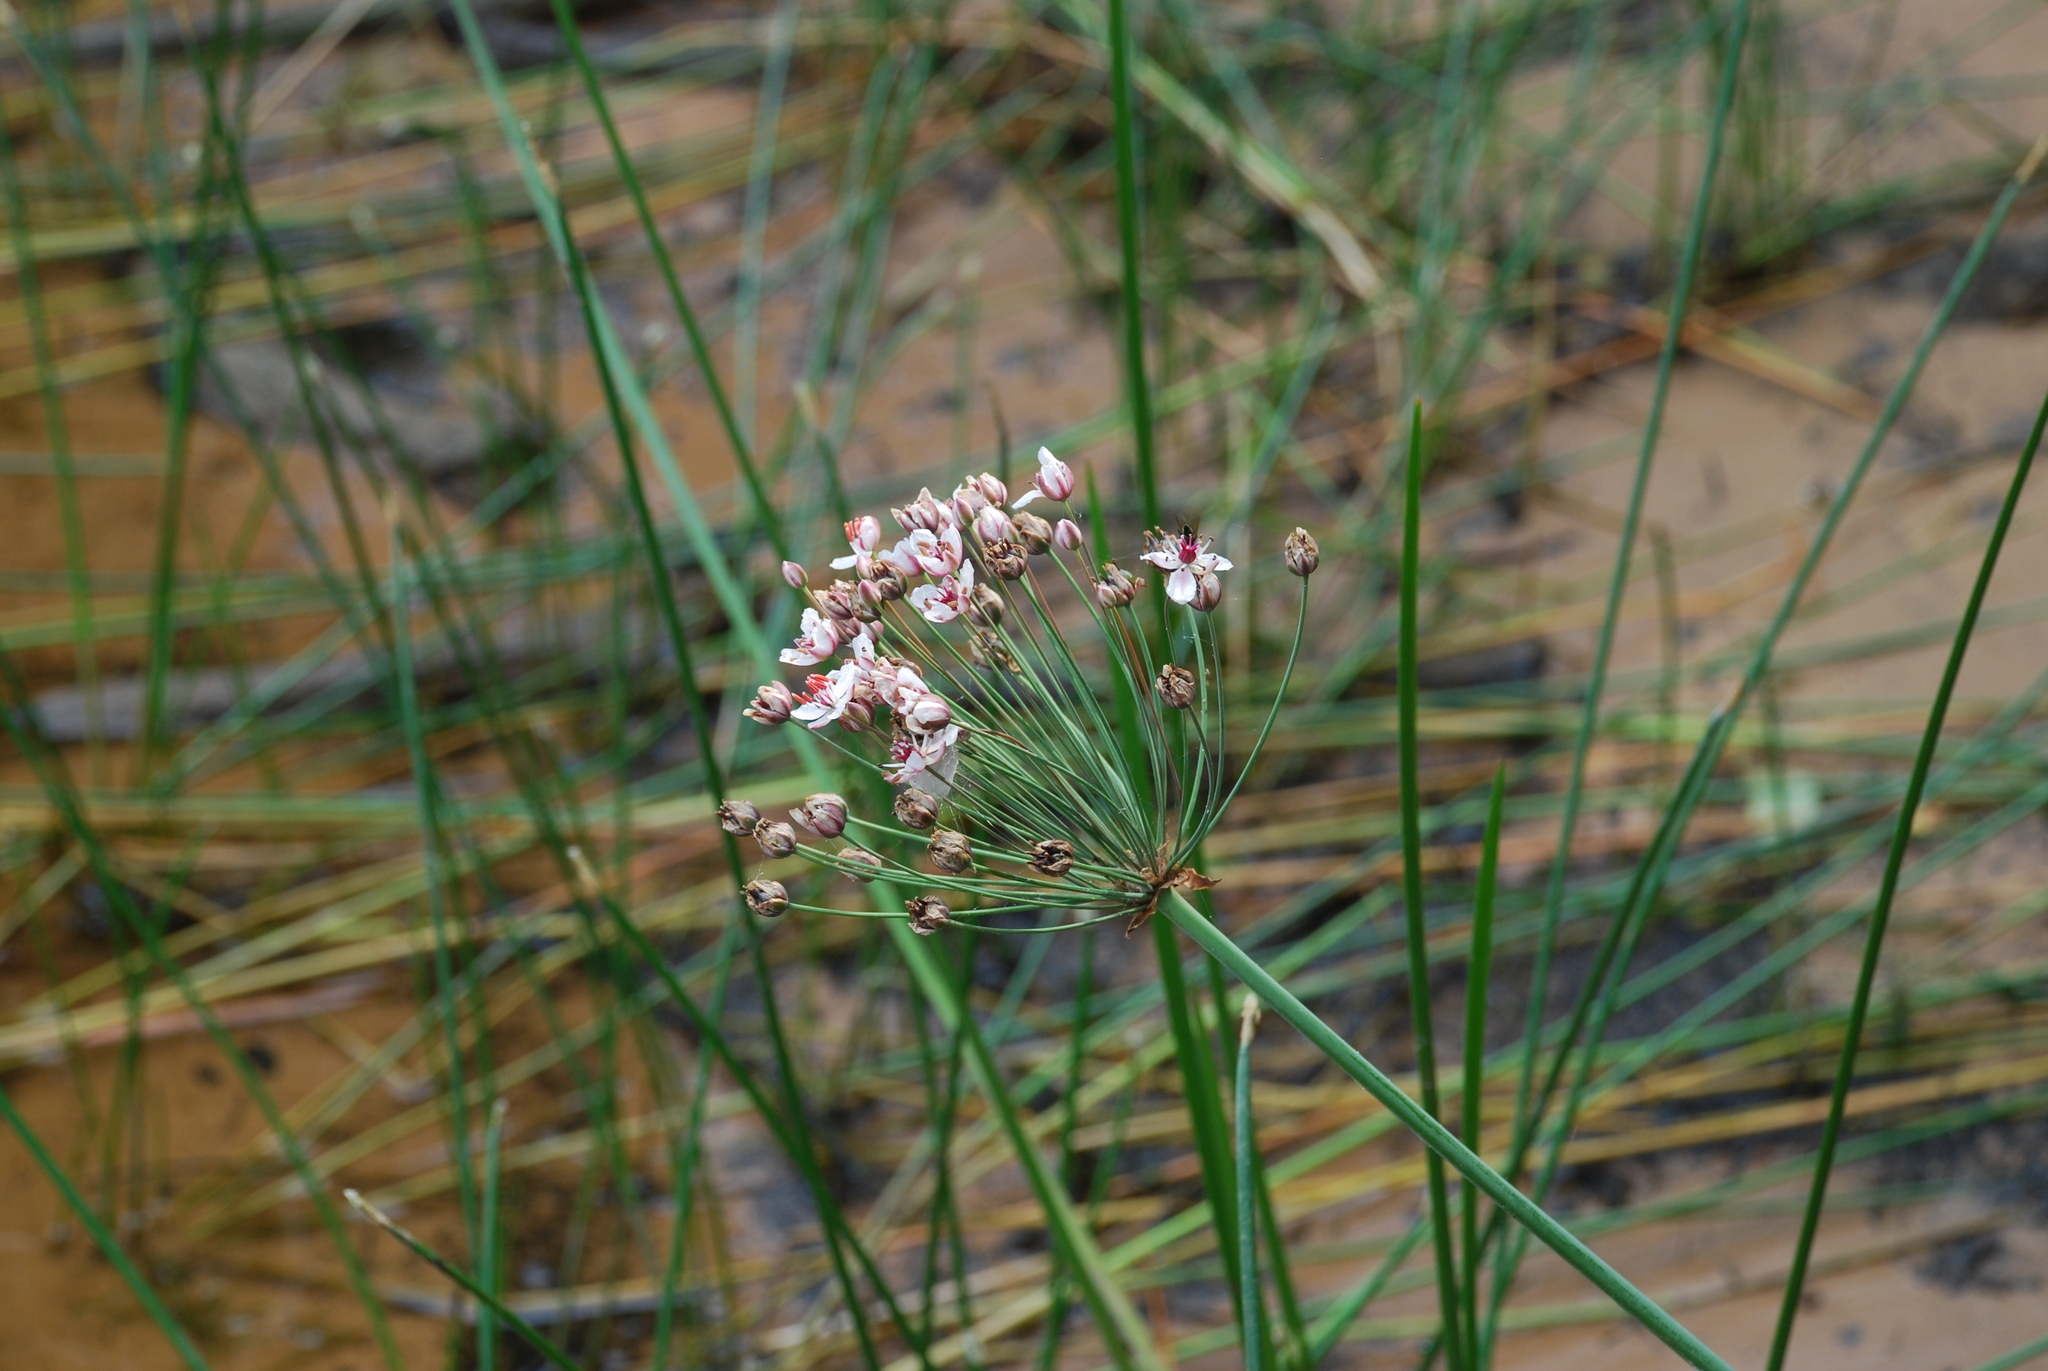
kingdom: Plantae
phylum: Tracheophyta
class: Liliopsida
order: Alismatales
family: Butomaceae
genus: Butomus
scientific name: Butomus umbellatus
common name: Flowering-rush
